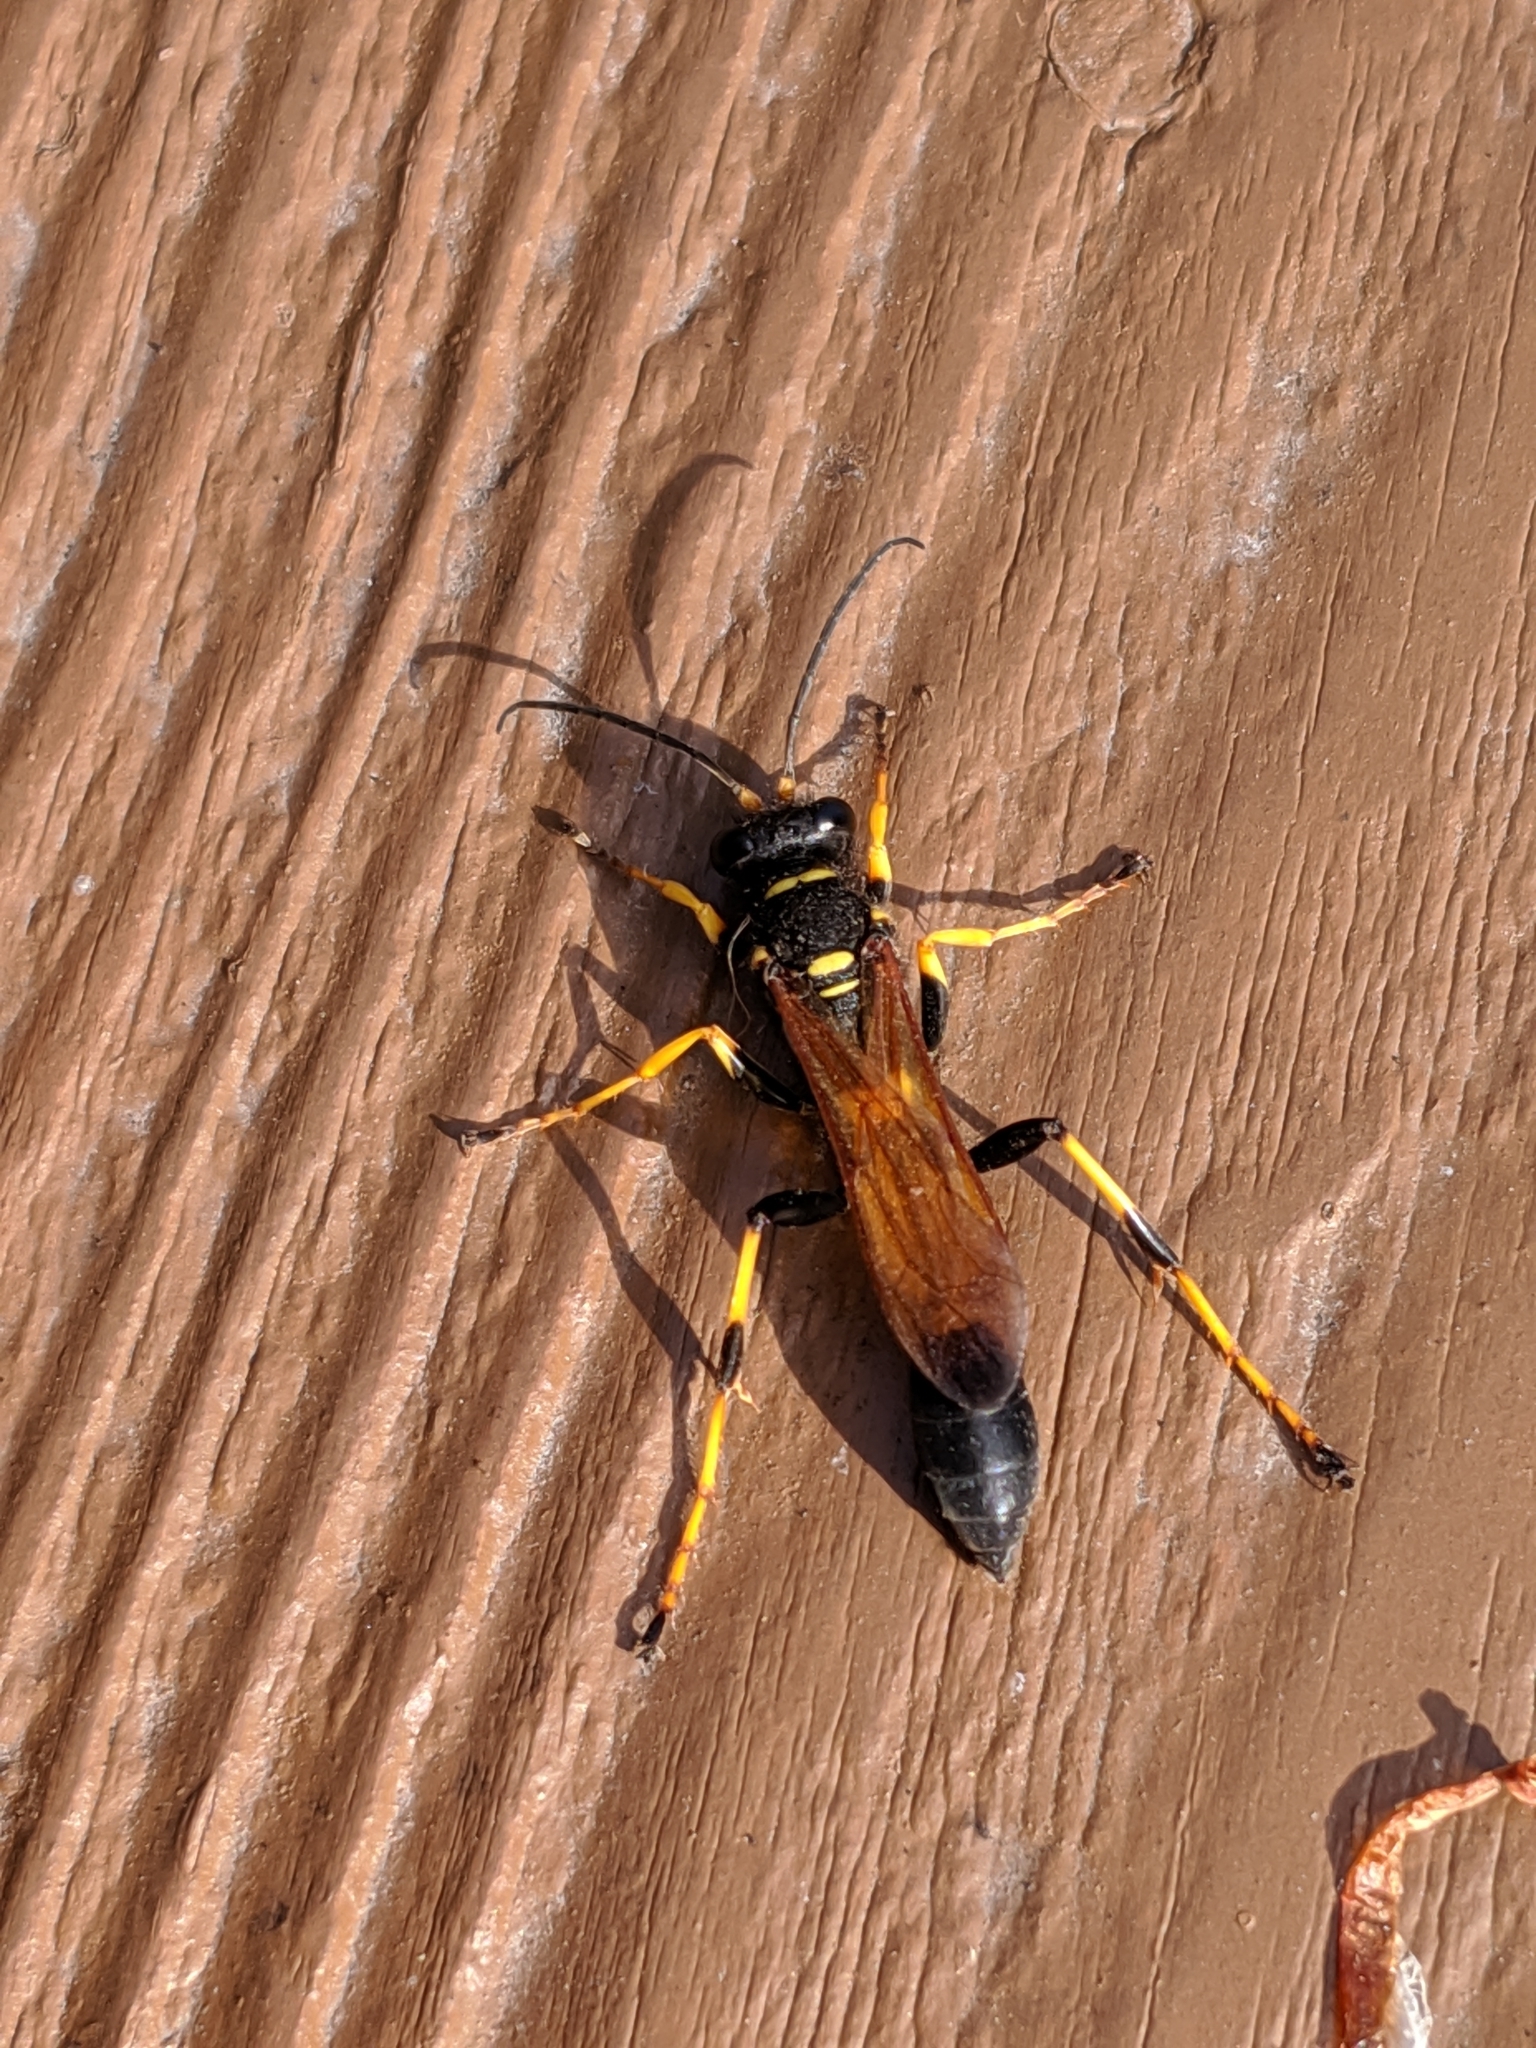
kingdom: Animalia
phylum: Arthropoda
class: Insecta
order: Hymenoptera
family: Sphecidae
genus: Sceliphron
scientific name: Sceliphron caementarium
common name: Mud dauber
